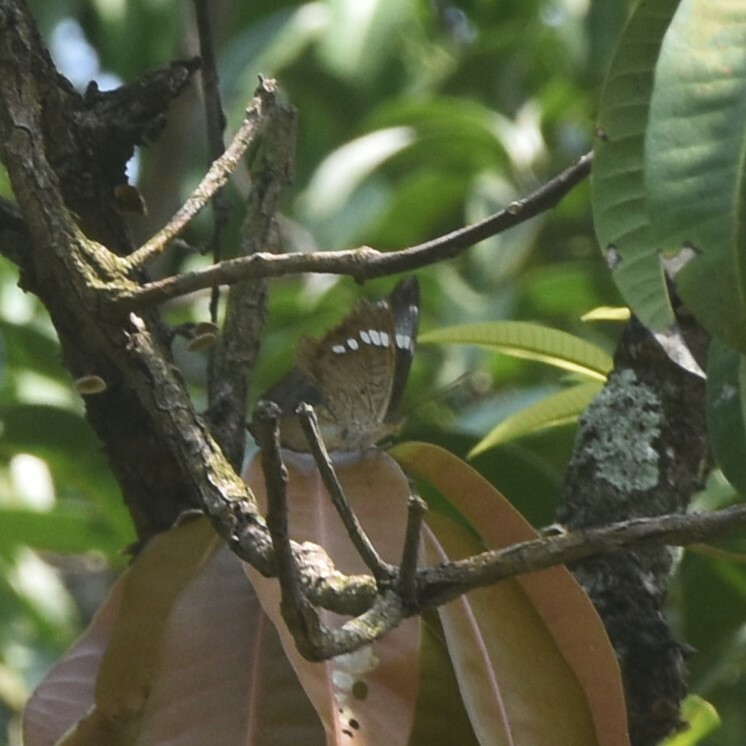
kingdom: Animalia
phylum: Arthropoda
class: Insecta
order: Lepidoptera
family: Nymphalidae
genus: Euthalia
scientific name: Euthalia aconthea
